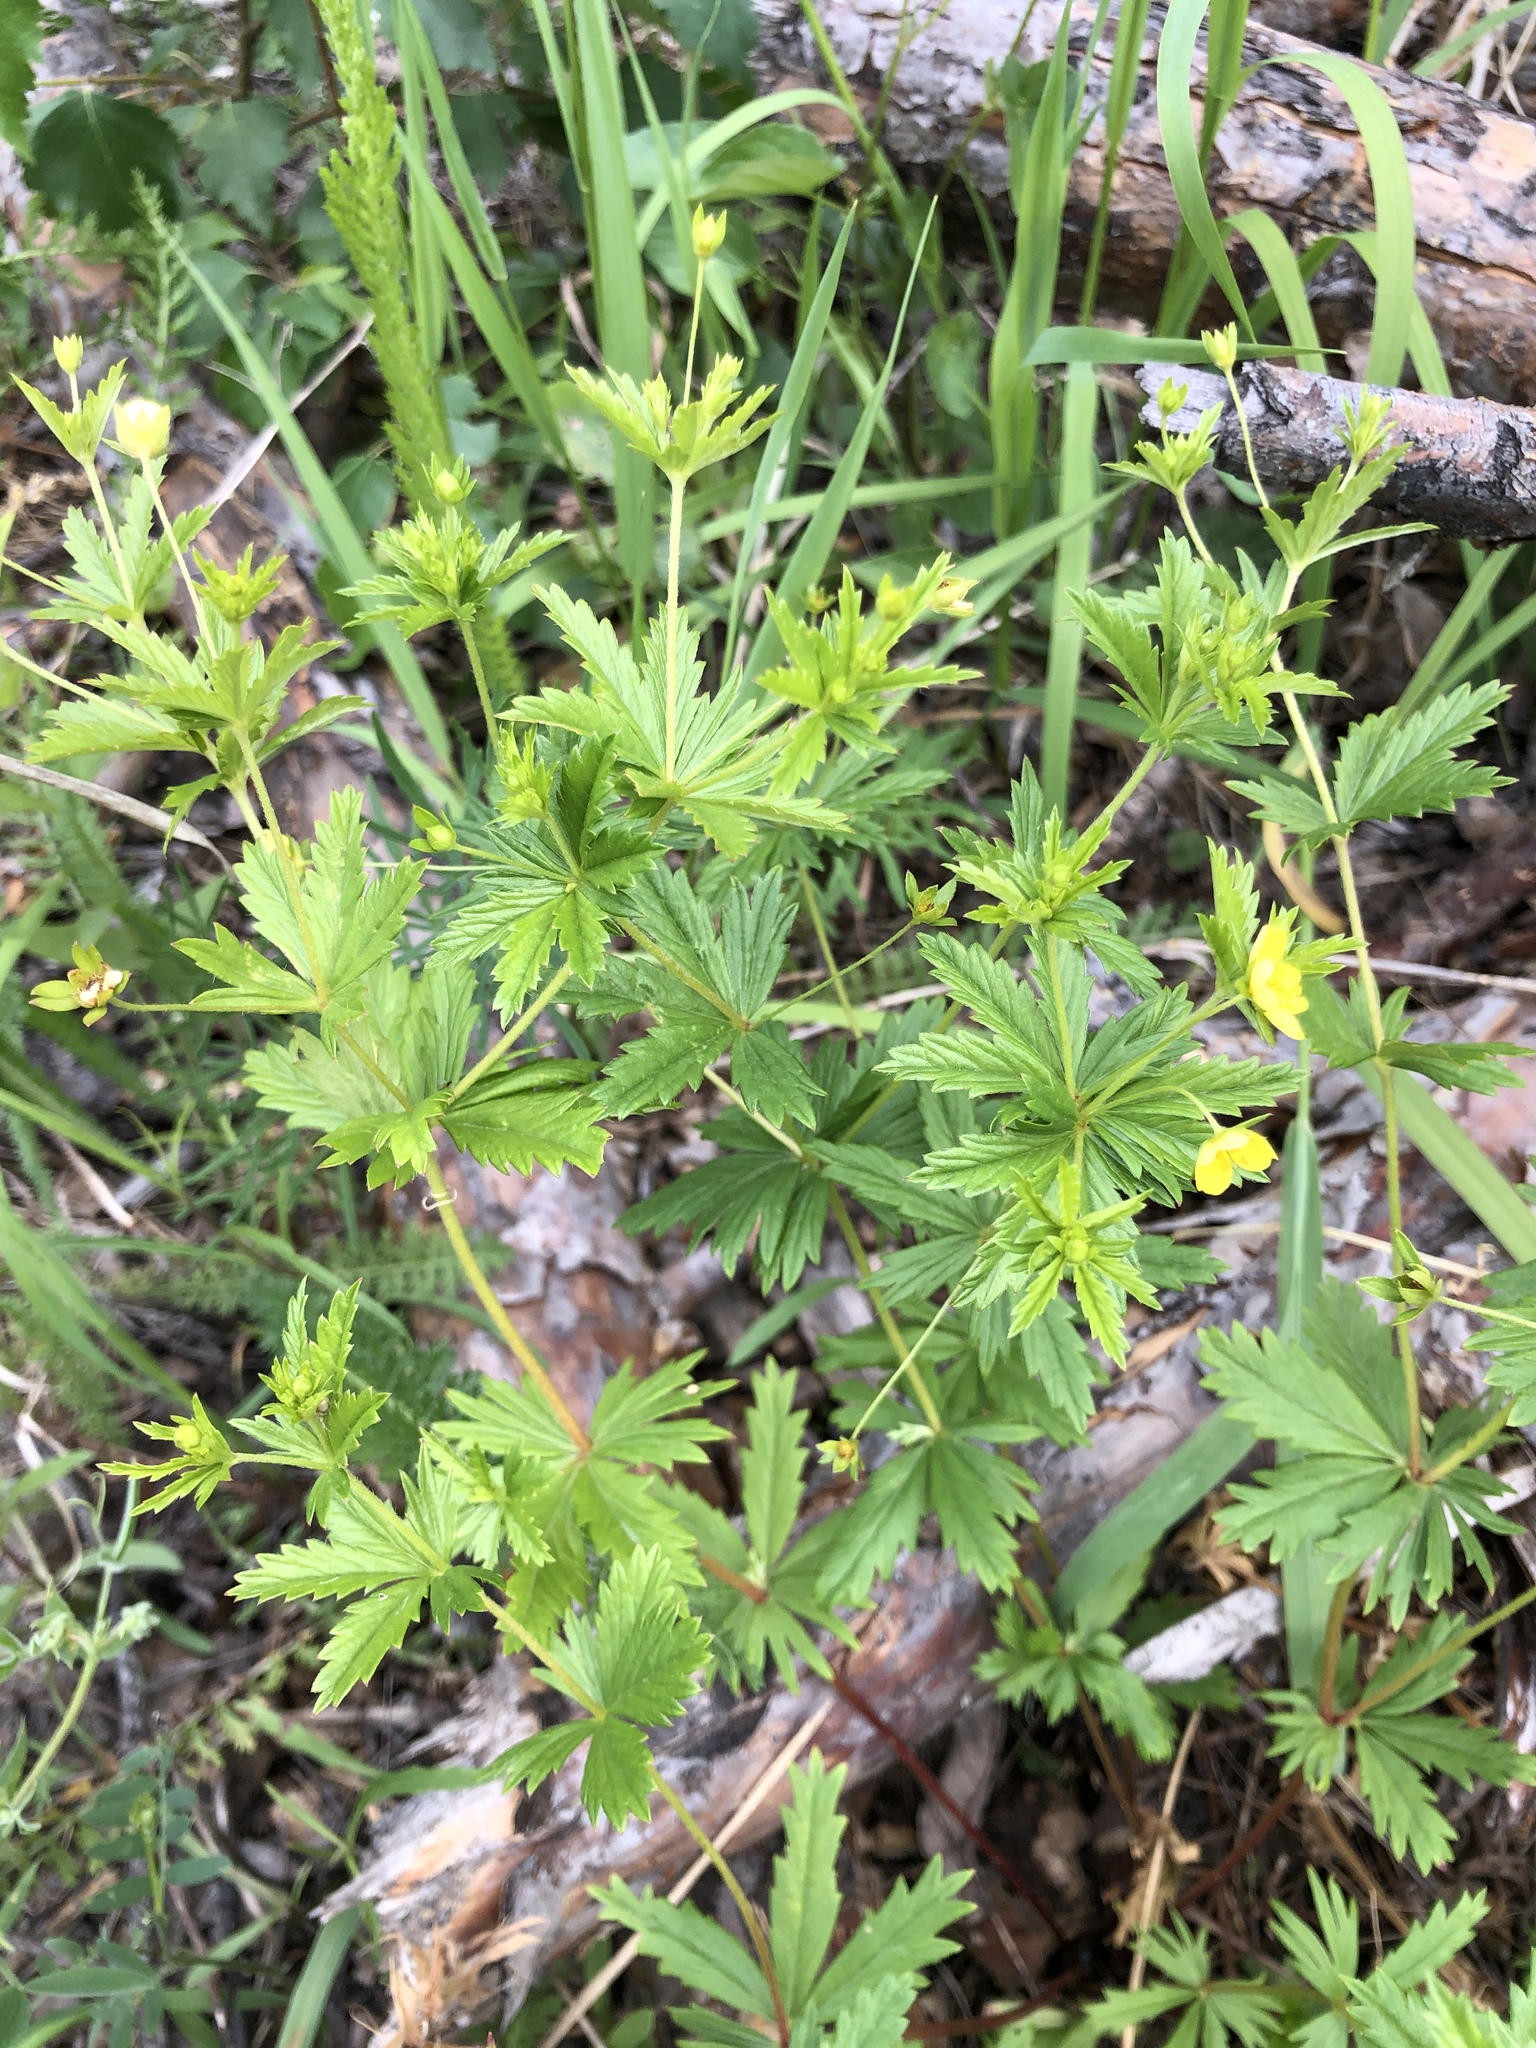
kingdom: Plantae
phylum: Tracheophyta
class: Magnoliopsida
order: Rosales
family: Rosaceae
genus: Potentilla
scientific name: Potentilla erecta
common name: Tormentil
